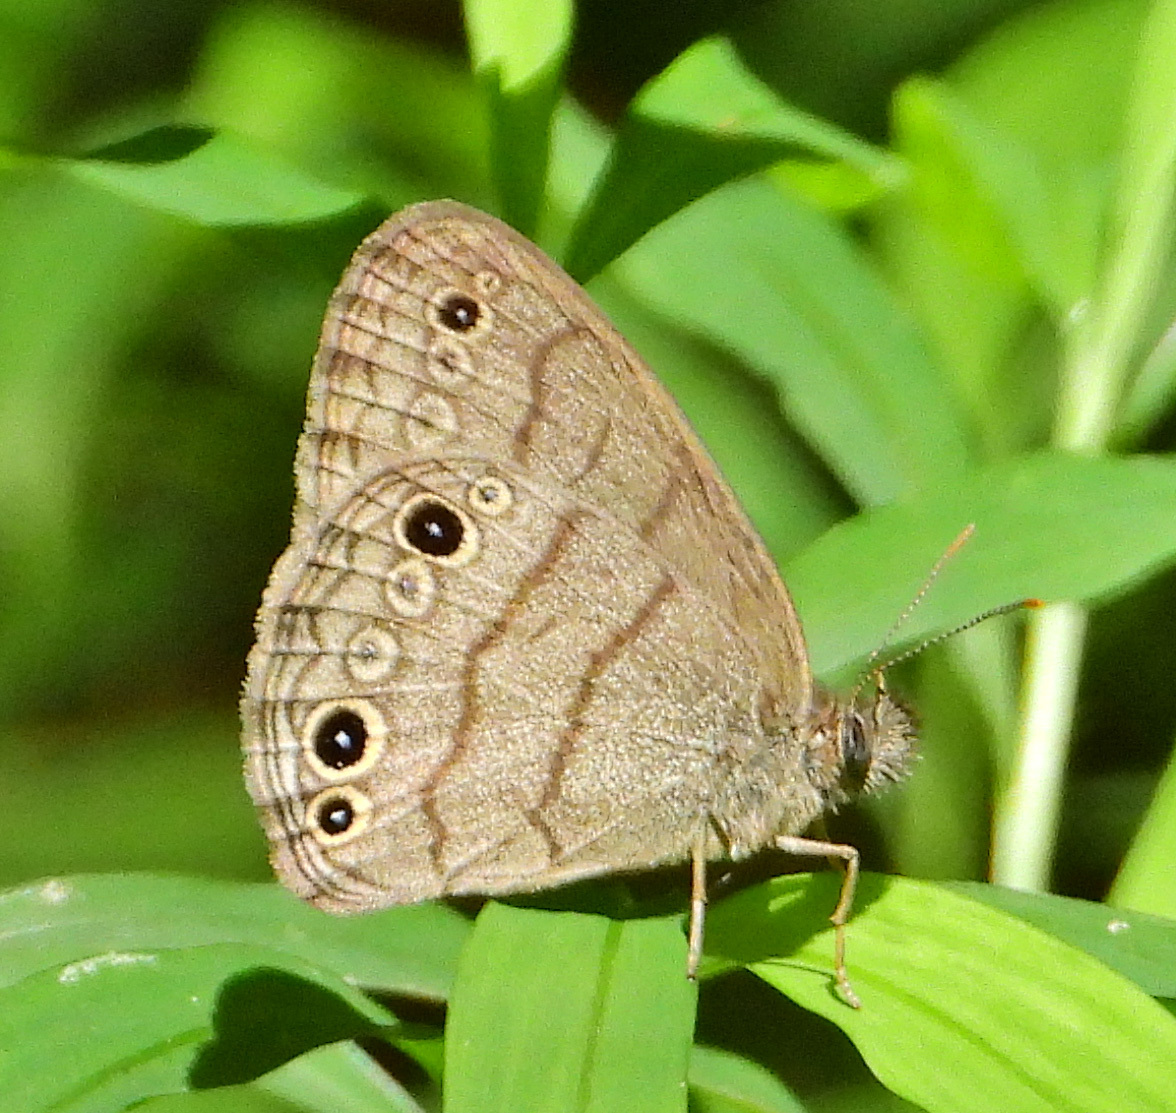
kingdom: Animalia
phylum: Arthropoda
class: Insecta
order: Lepidoptera
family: Nymphalidae
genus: Hermeuptychia
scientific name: Hermeuptychia intricata
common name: Intricate satyr
